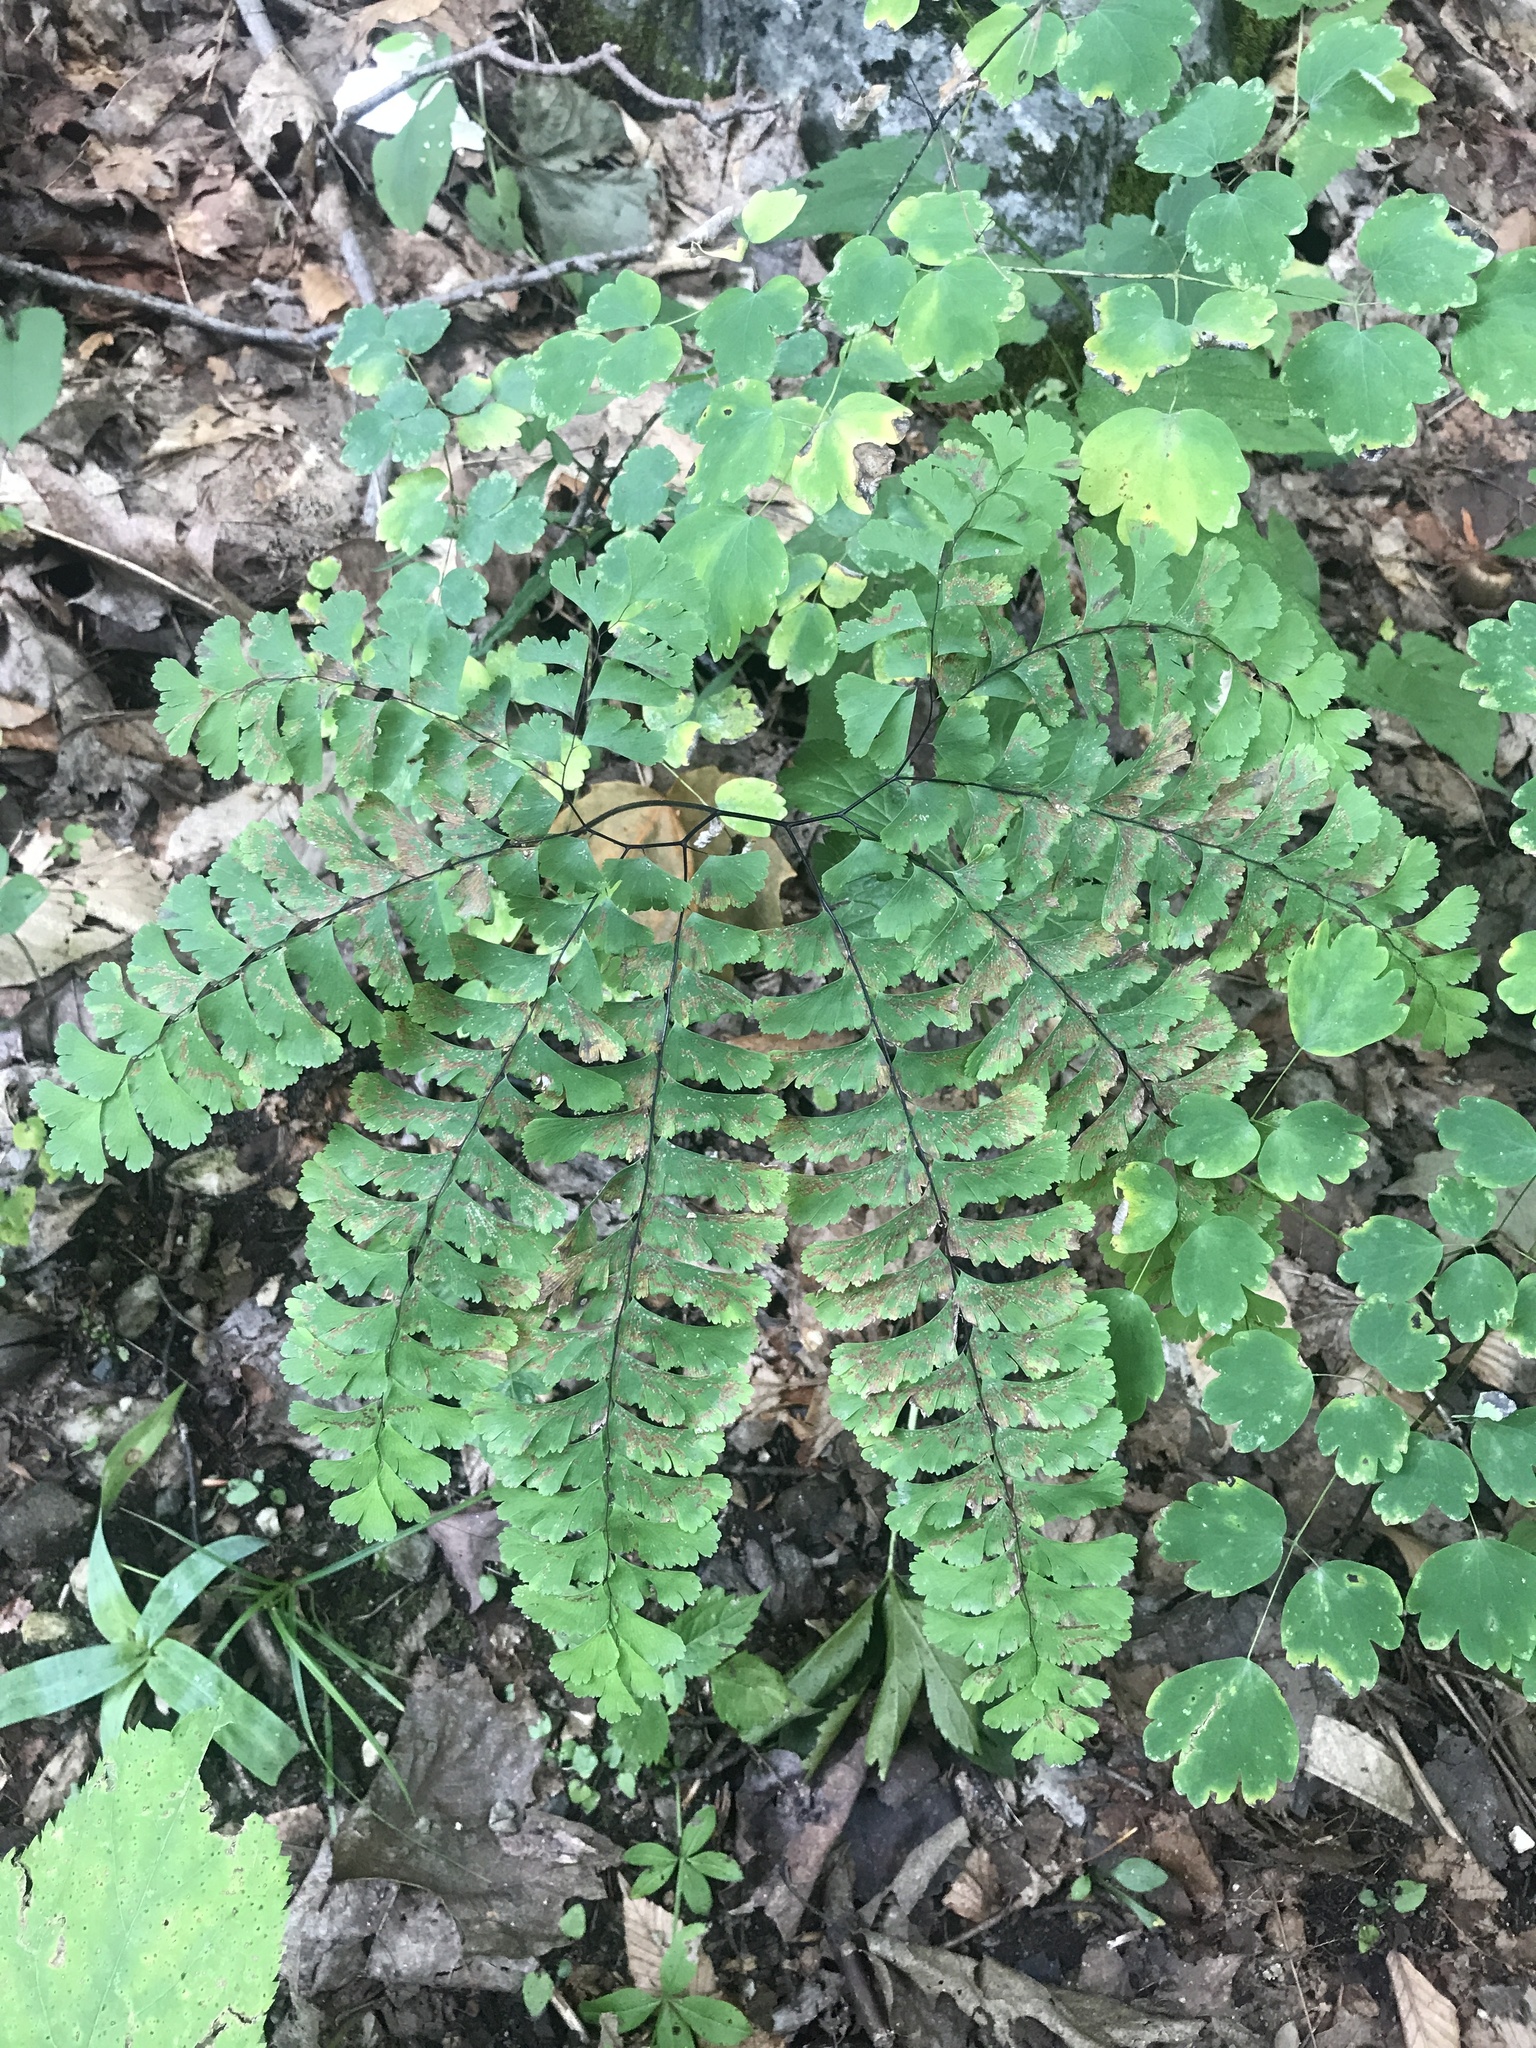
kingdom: Plantae
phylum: Tracheophyta
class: Polypodiopsida
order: Polypodiales
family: Pteridaceae
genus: Adiantum
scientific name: Adiantum pedatum
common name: Five-finger fern
